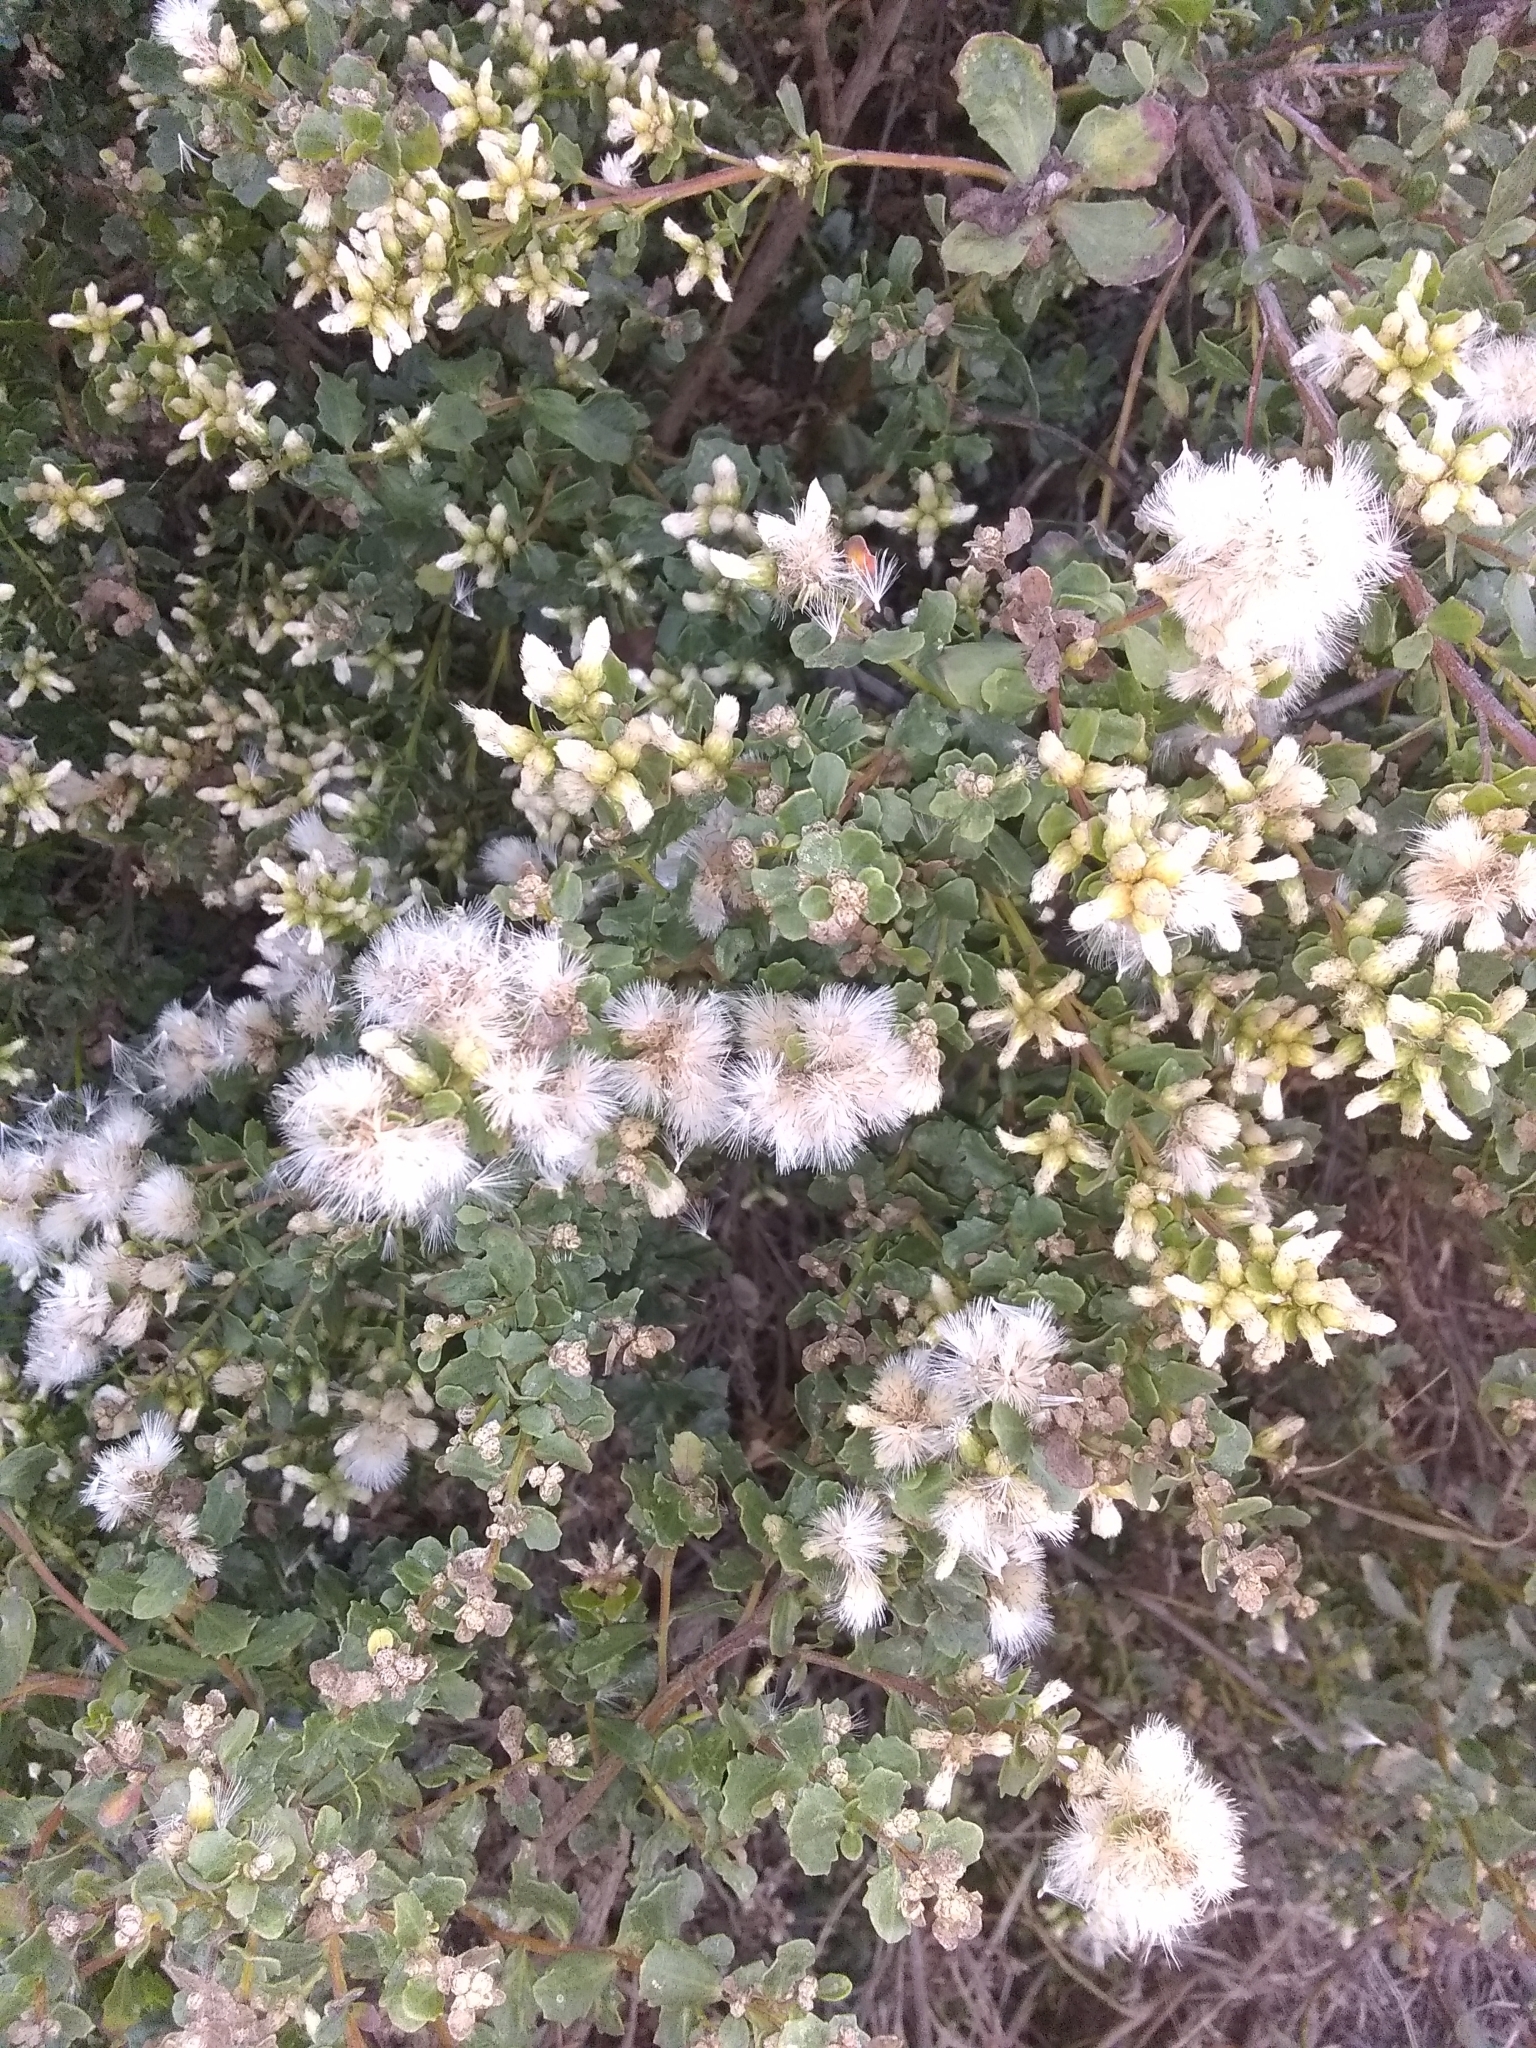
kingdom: Plantae
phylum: Tracheophyta
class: Magnoliopsida
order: Asterales
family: Asteraceae
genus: Baccharis
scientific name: Baccharis pilularis
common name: Coyotebrush
